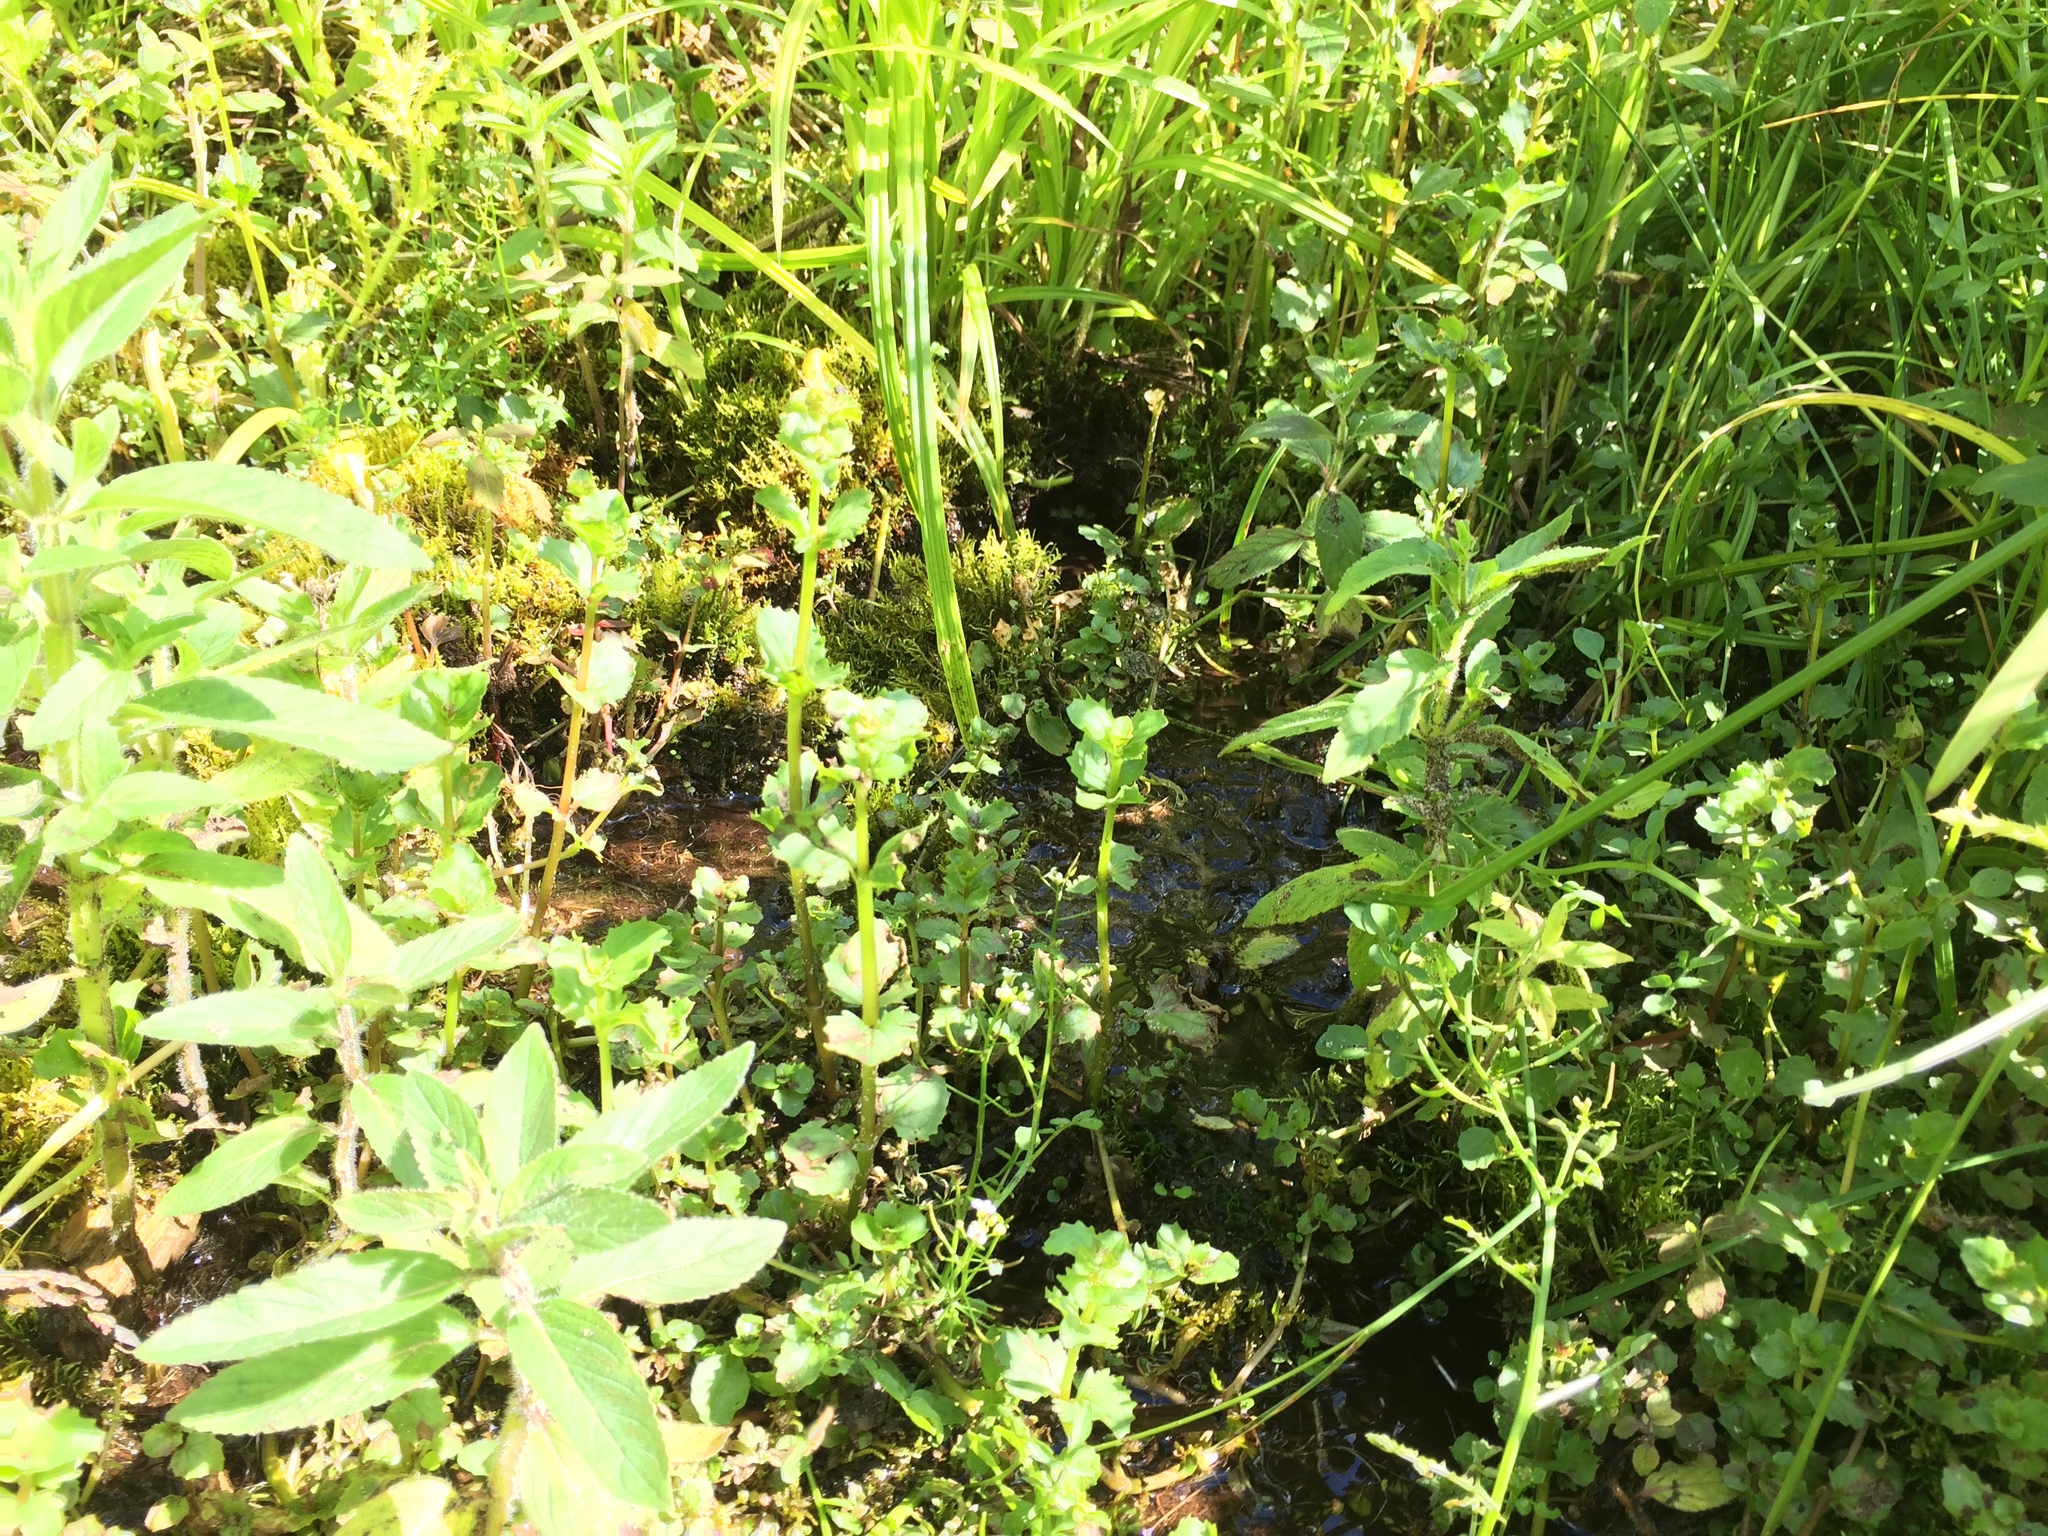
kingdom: Plantae
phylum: Tracheophyta
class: Magnoliopsida
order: Lamiales
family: Phrymaceae
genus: Erythranthe
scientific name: Erythranthe michiganensis
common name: Michigan monkey-flower
